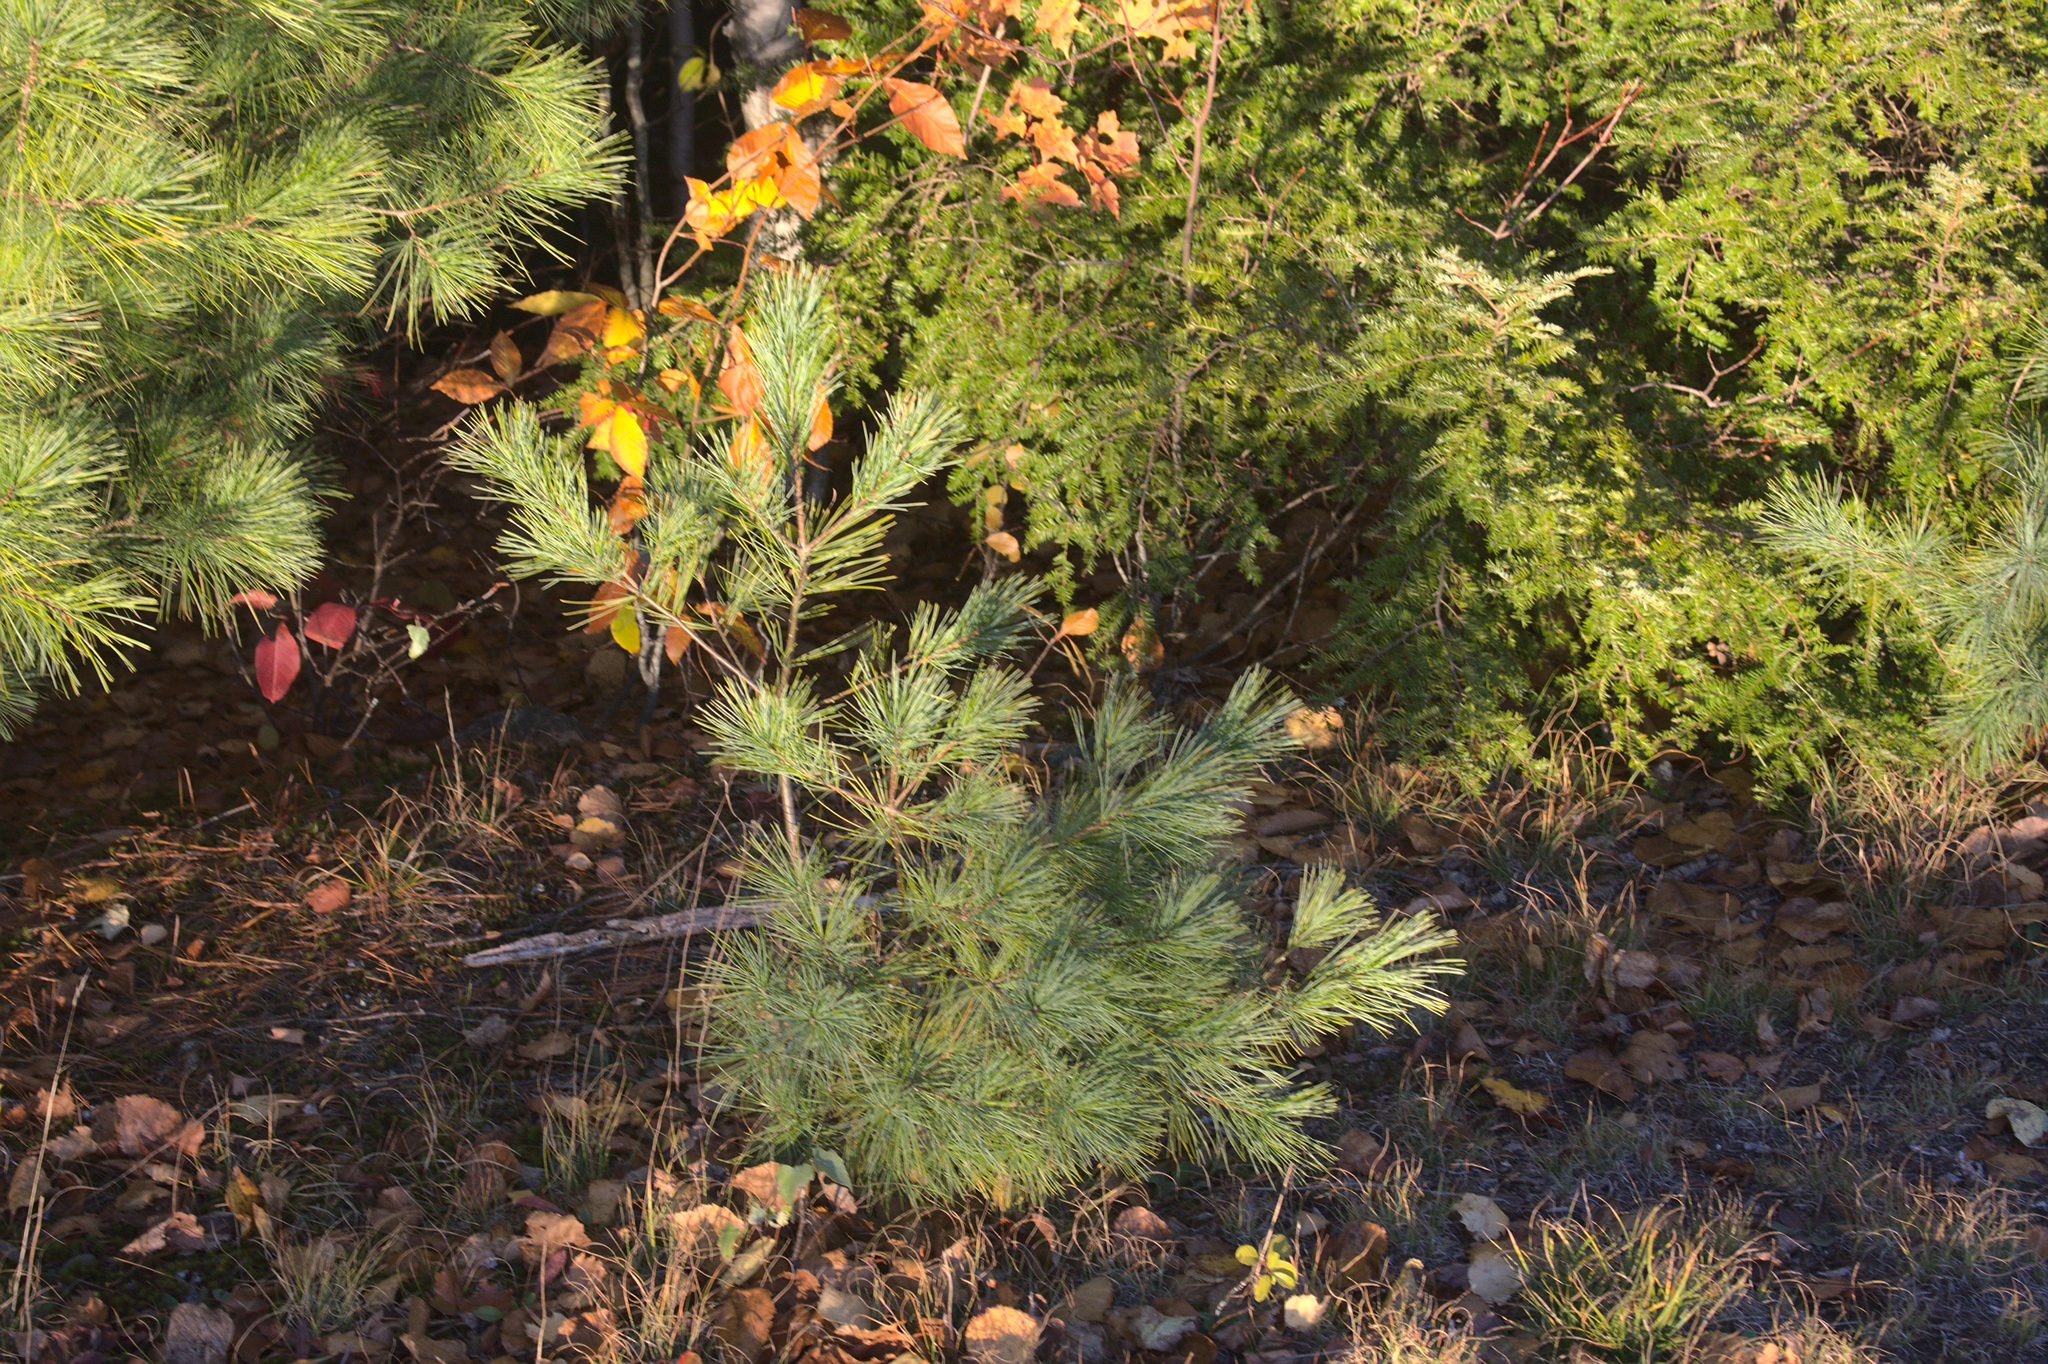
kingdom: Plantae
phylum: Tracheophyta
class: Pinopsida
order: Pinales
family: Pinaceae
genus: Pinus
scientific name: Pinus strobus
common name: Weymouth pine
